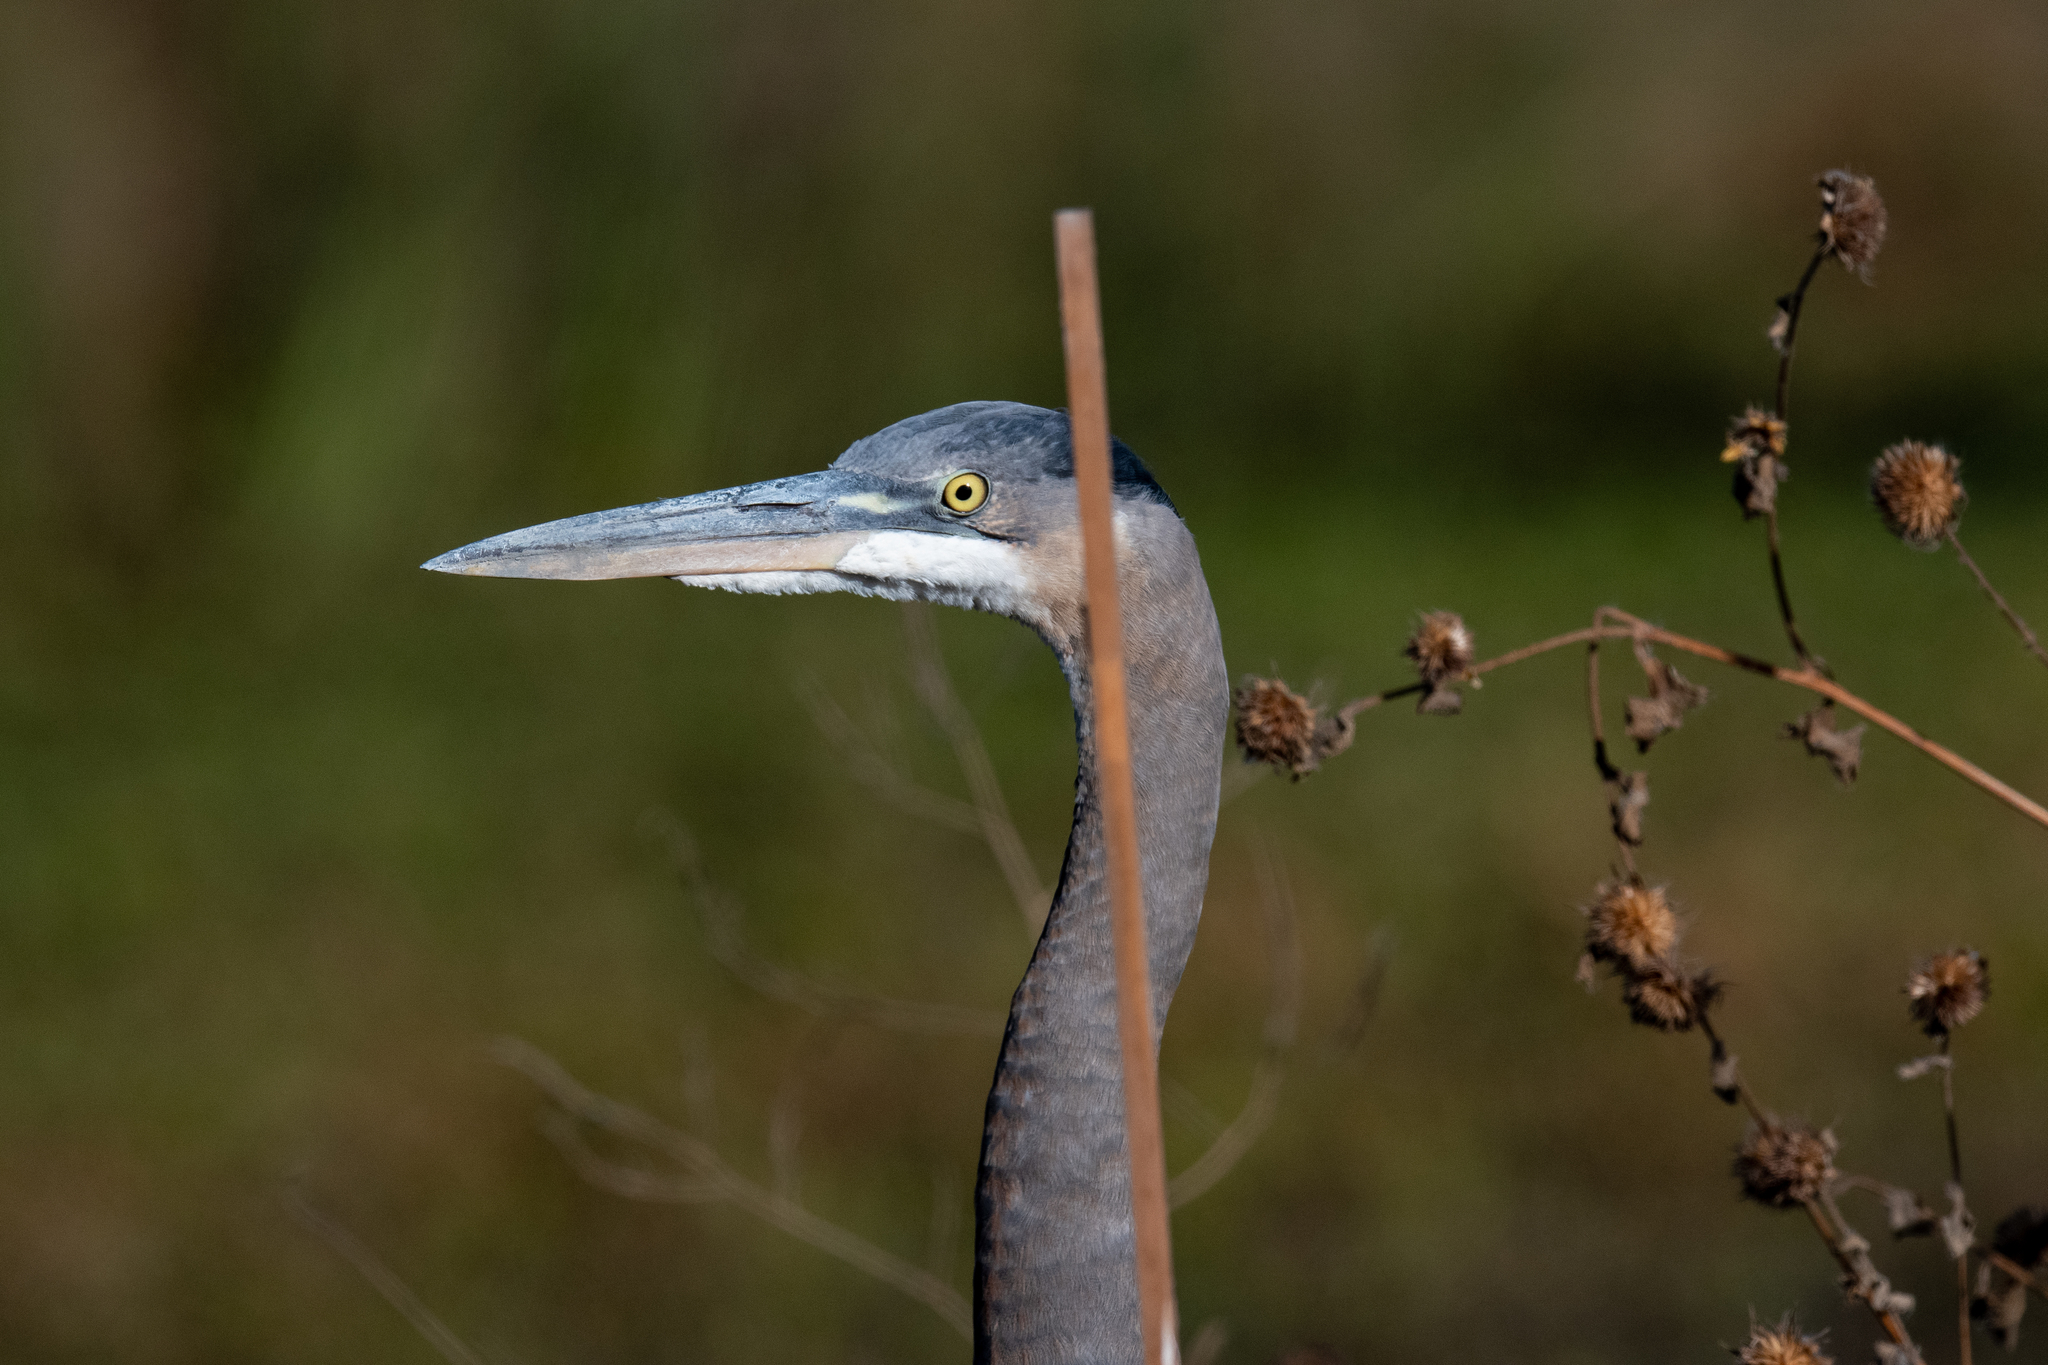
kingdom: Animalia
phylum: Chordata
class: Aves
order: Pelecaniformes
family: Ardeidae
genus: Ardea
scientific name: Ardea herodias
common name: Great blue heron
